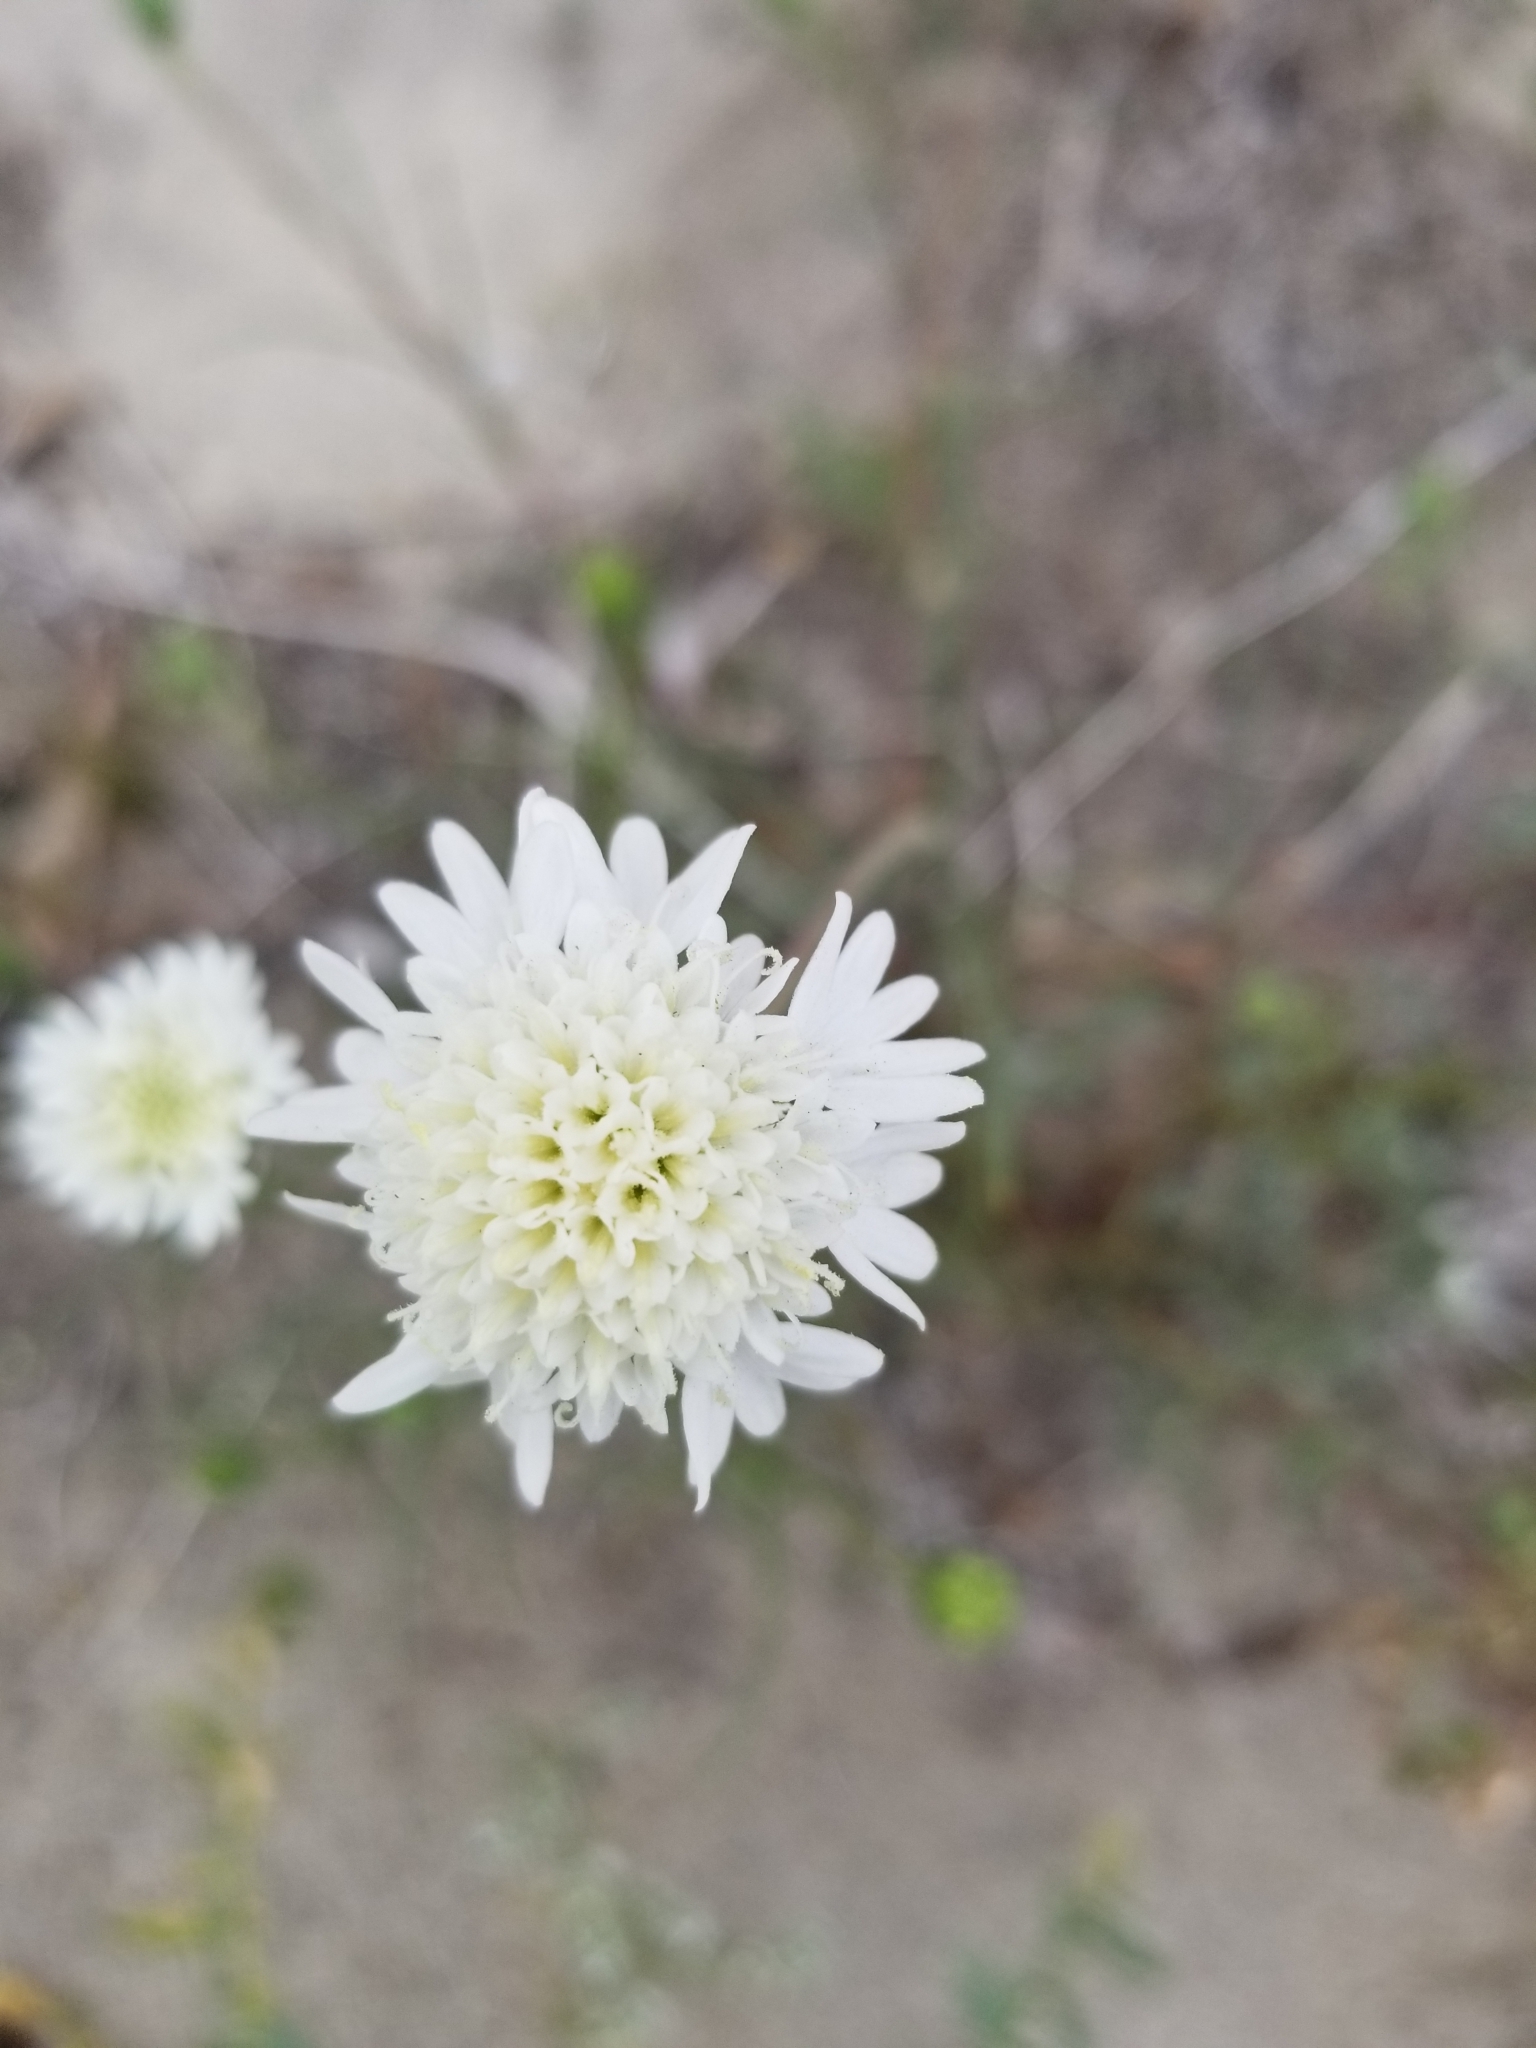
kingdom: Plantae
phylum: Tracheophyta
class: Magnoliopsida
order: Asterales
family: Asteraceae
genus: Chaenactis
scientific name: Chaenactis fremontii
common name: Fremont pincushion
